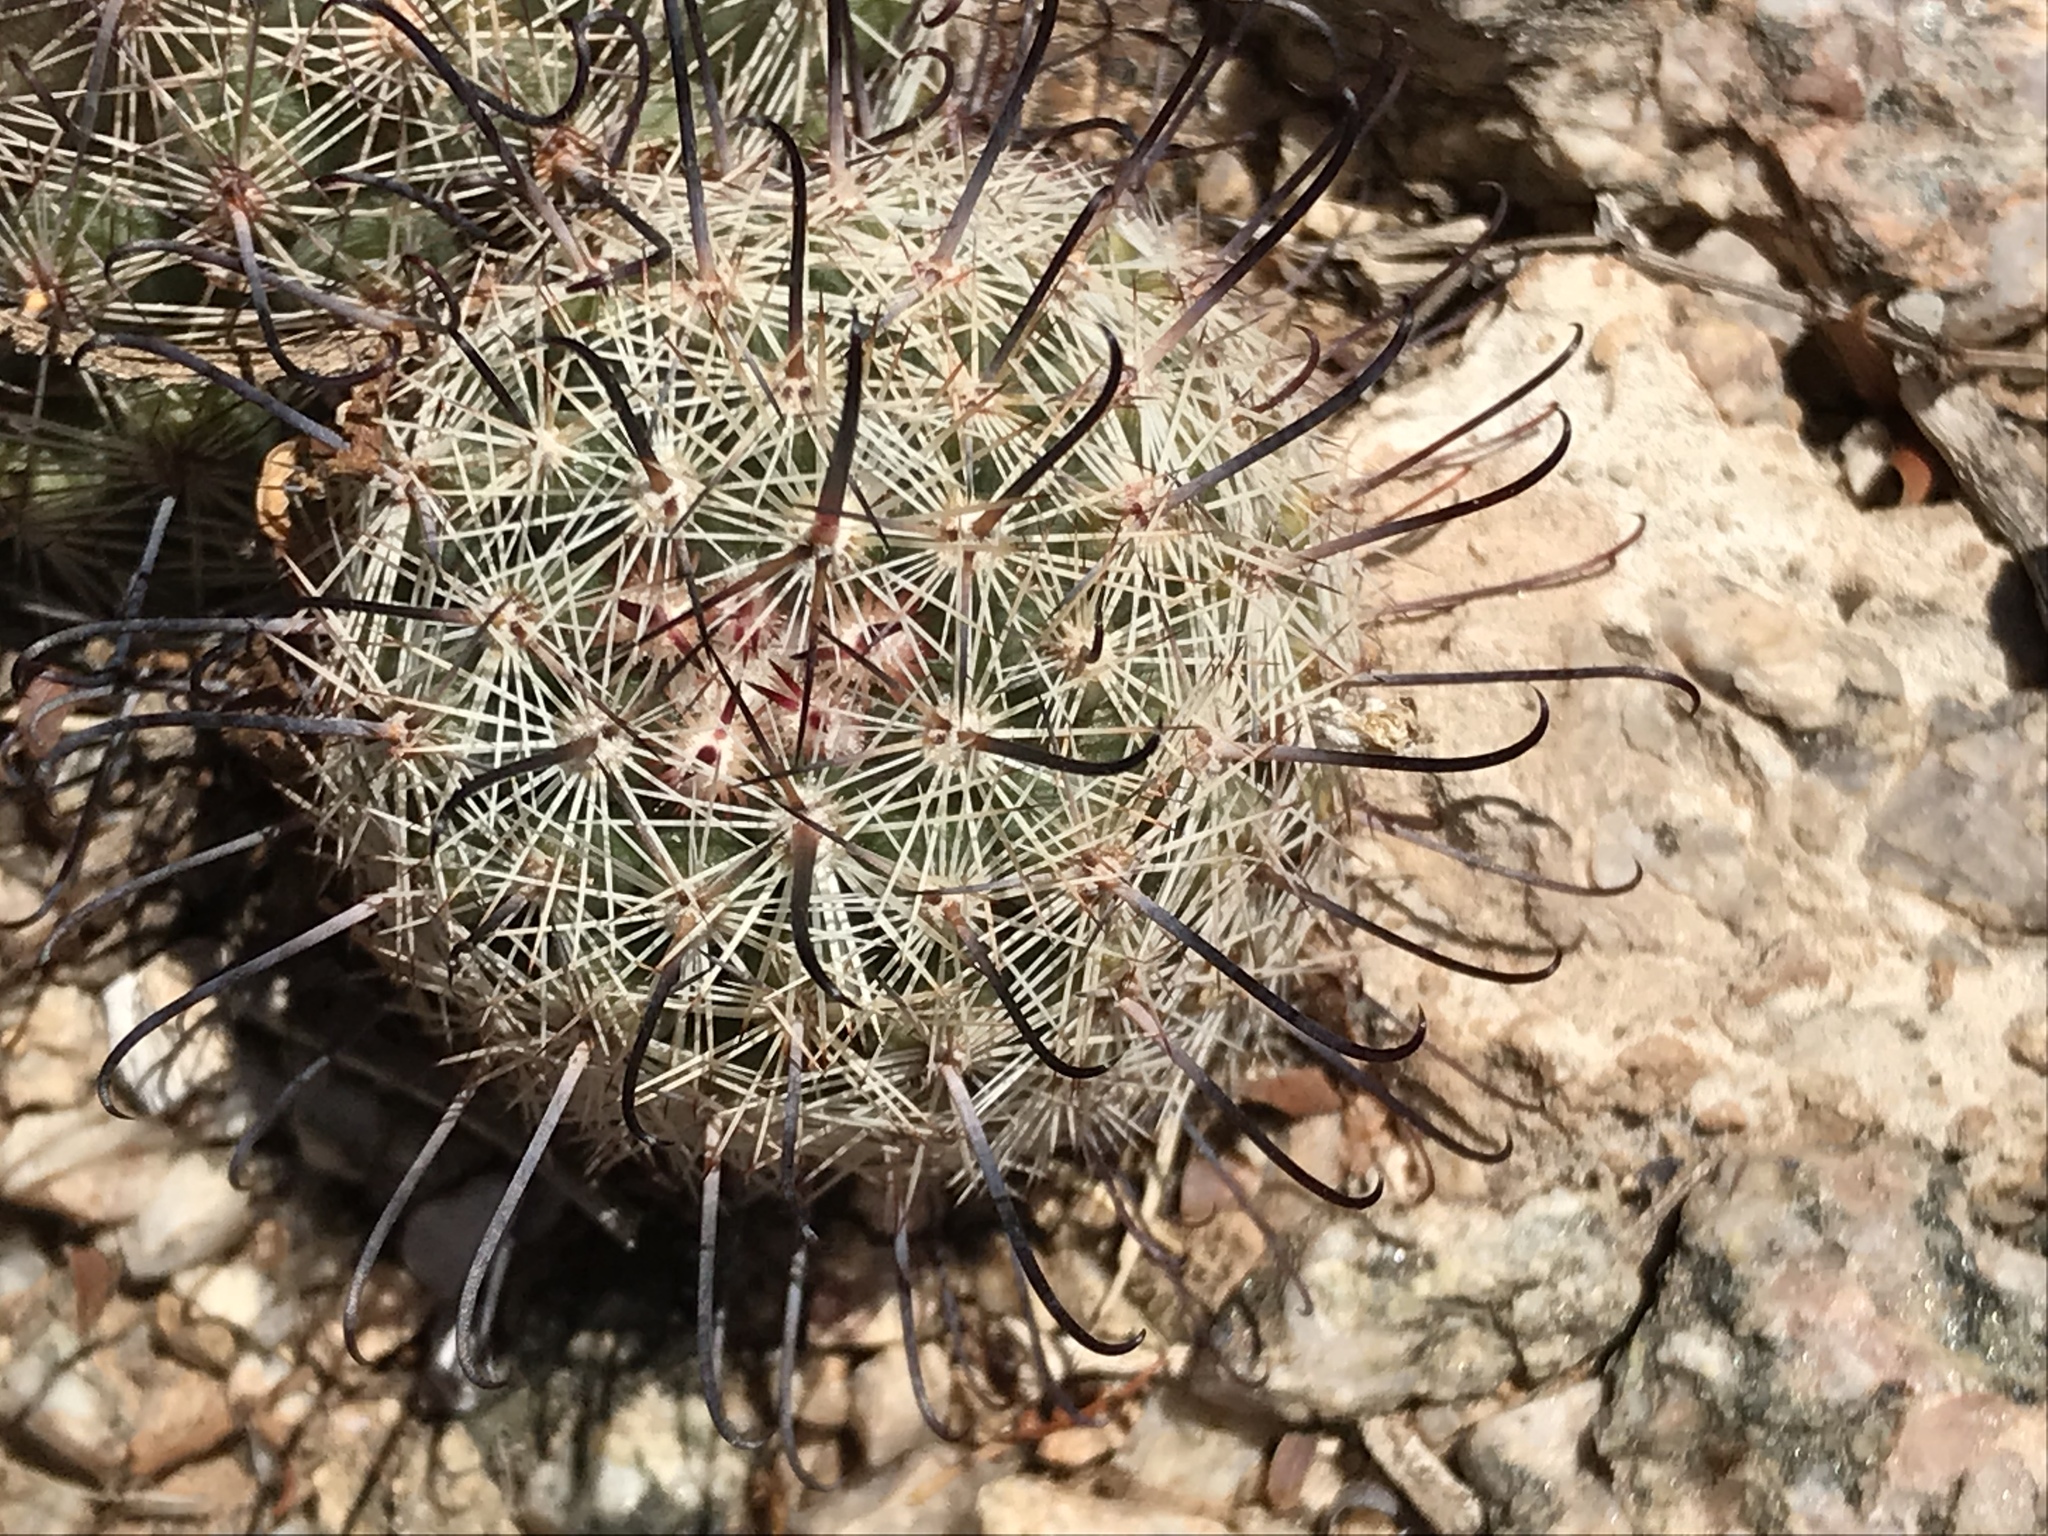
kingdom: Plantae
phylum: Tracheophyta
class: Magnoliopsida
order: Caryophyllales
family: Cactaceae
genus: Cochemiea
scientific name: Cochemiea grahamii
